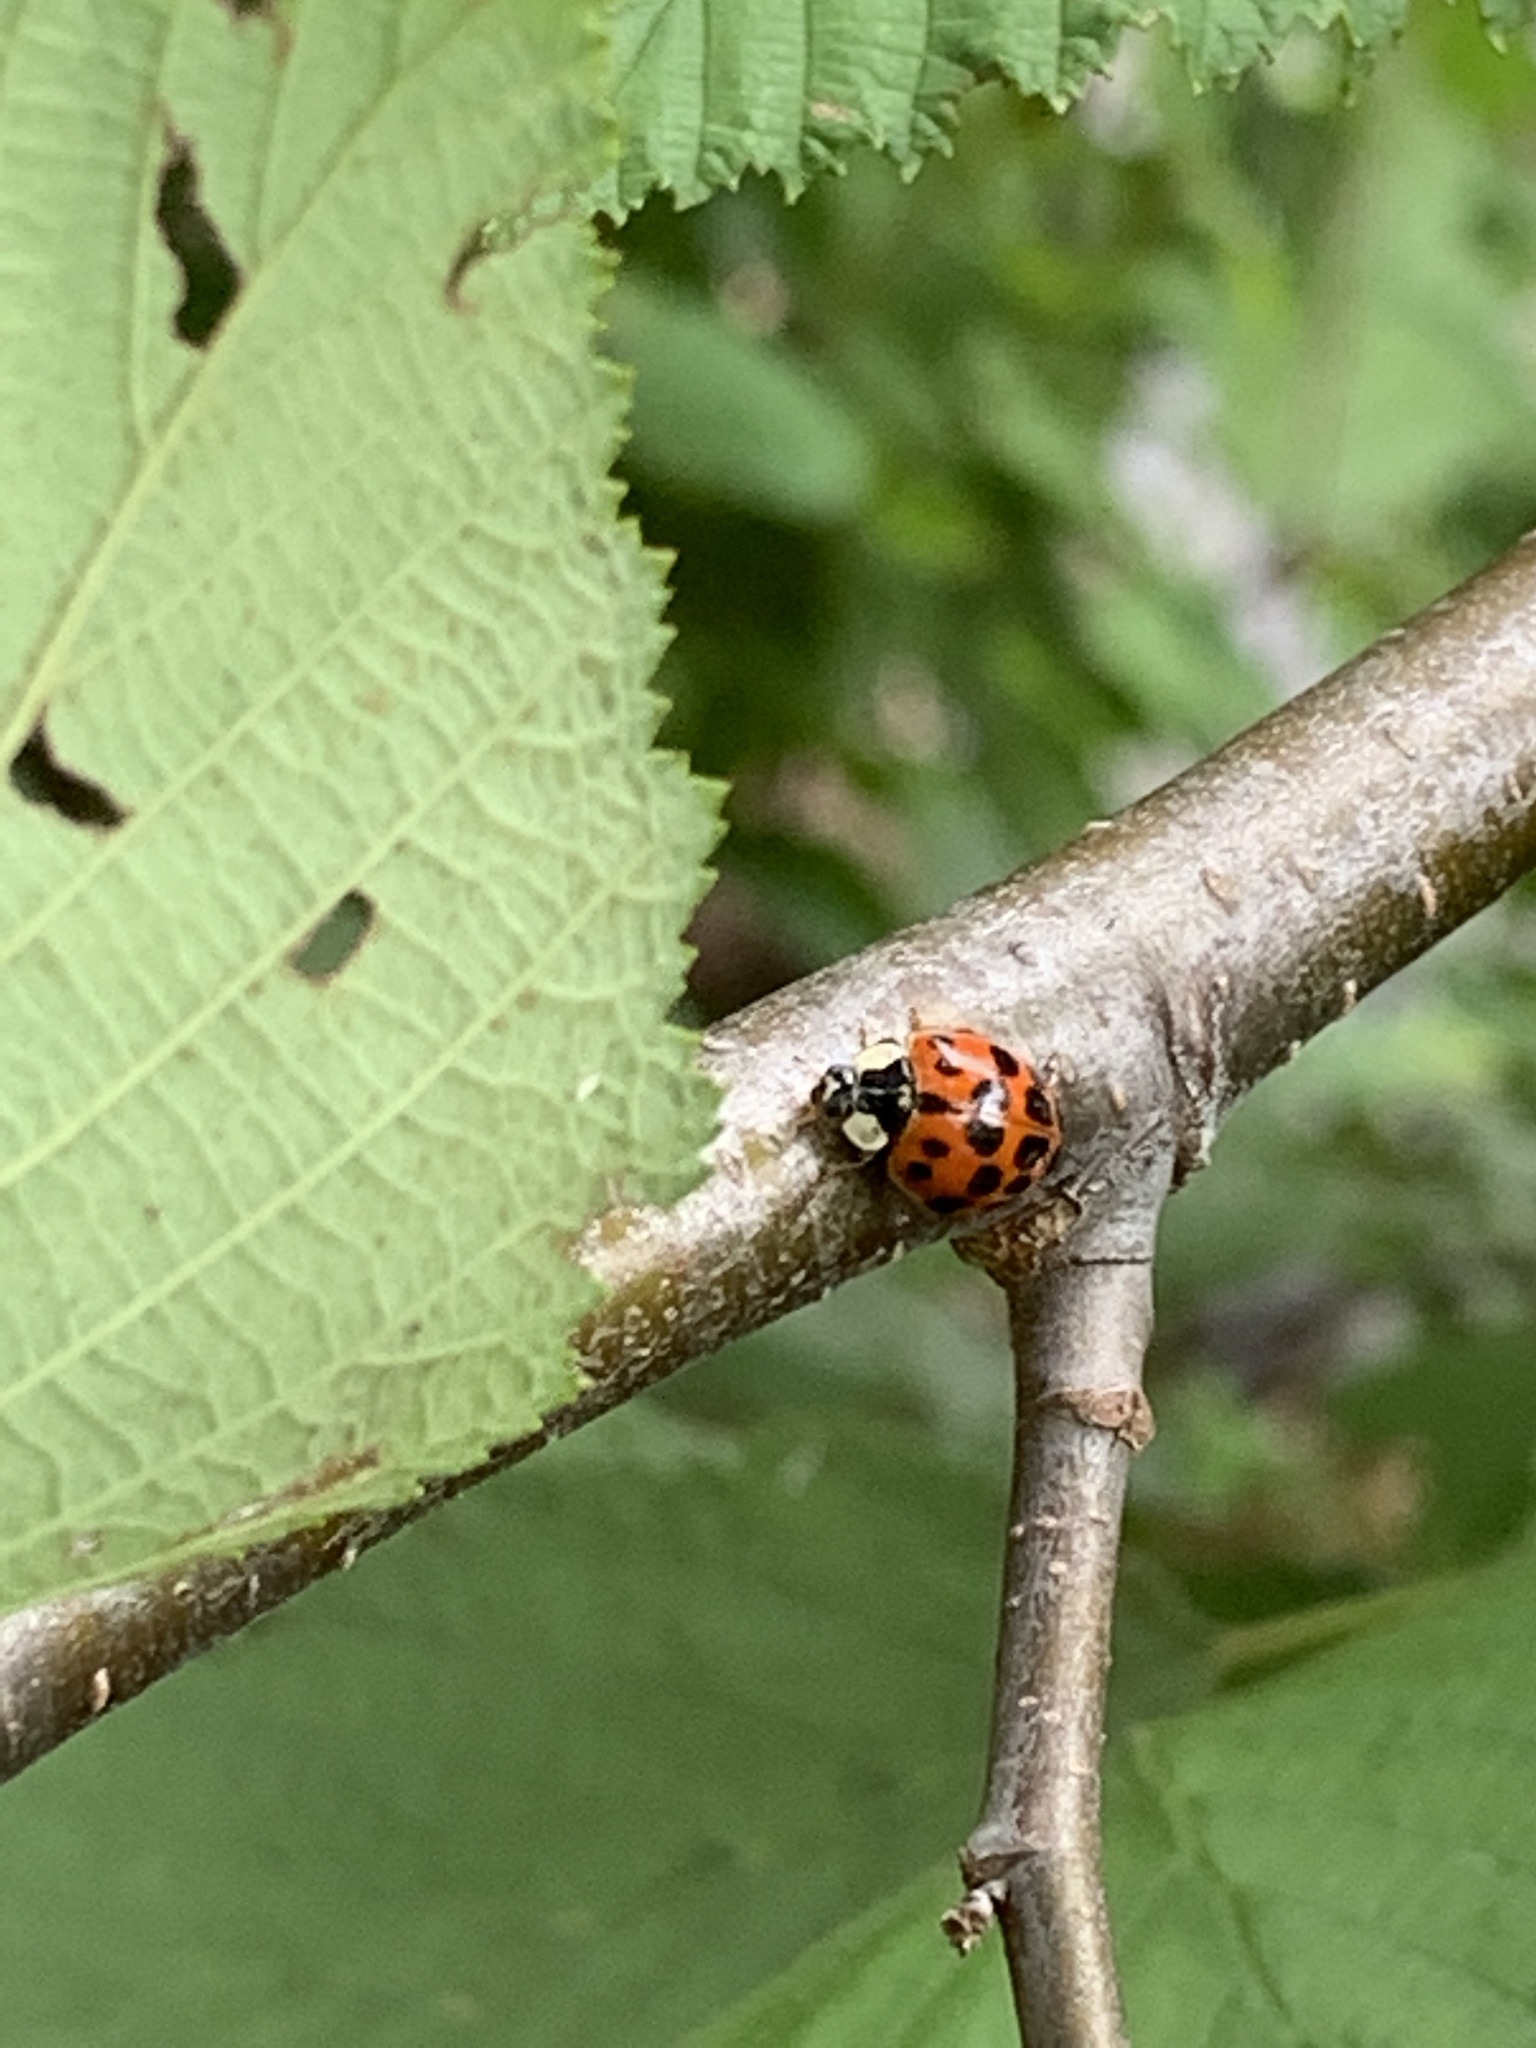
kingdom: Animalia
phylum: Arthropoda
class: Insecta
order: Coleoptera
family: Coccinellidae
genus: Harmonia
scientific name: Harmonia axyridis
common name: Harlequin ladybird
